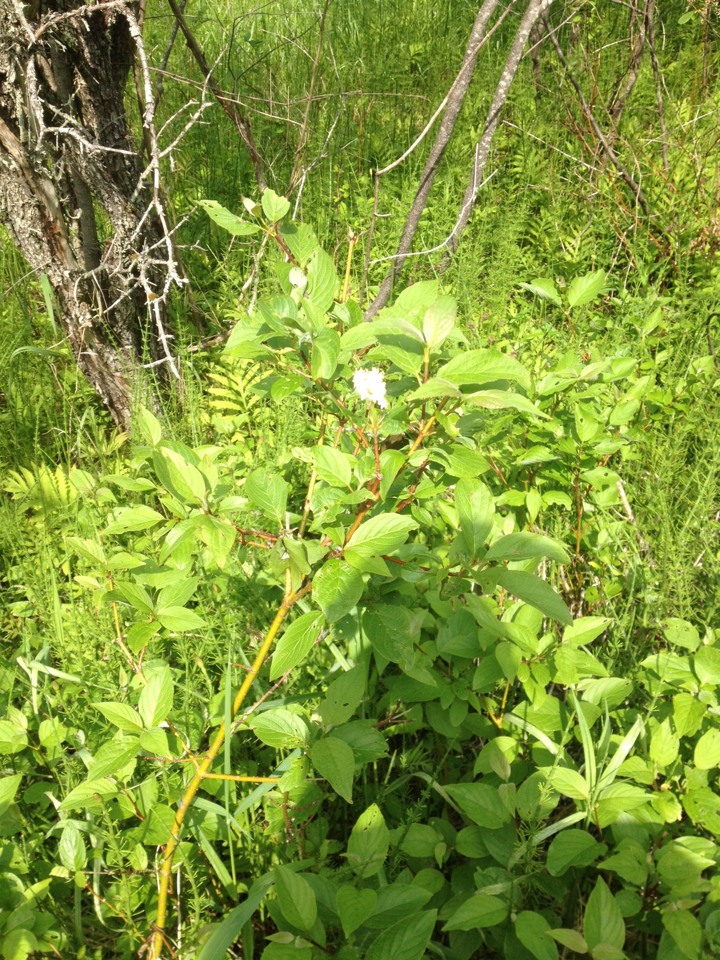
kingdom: Plantae
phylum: Tracheophyta
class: Magnoliopsida
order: Cornales
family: Cornaceae
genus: Cornus
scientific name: Cornus sericea
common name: Red-osier dogwood
